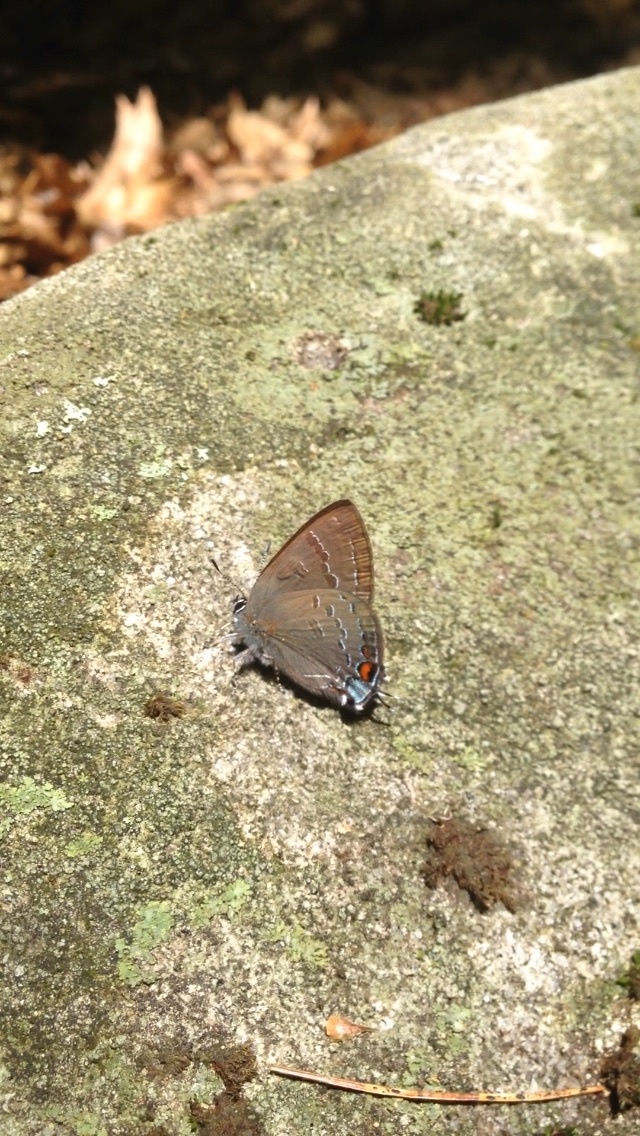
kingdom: Animalia
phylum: Arthropoda
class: Insecta
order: Lepidoptera
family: Lycaenidae
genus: Satyrium
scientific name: Satyrium calanus
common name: Banded hairstreak
